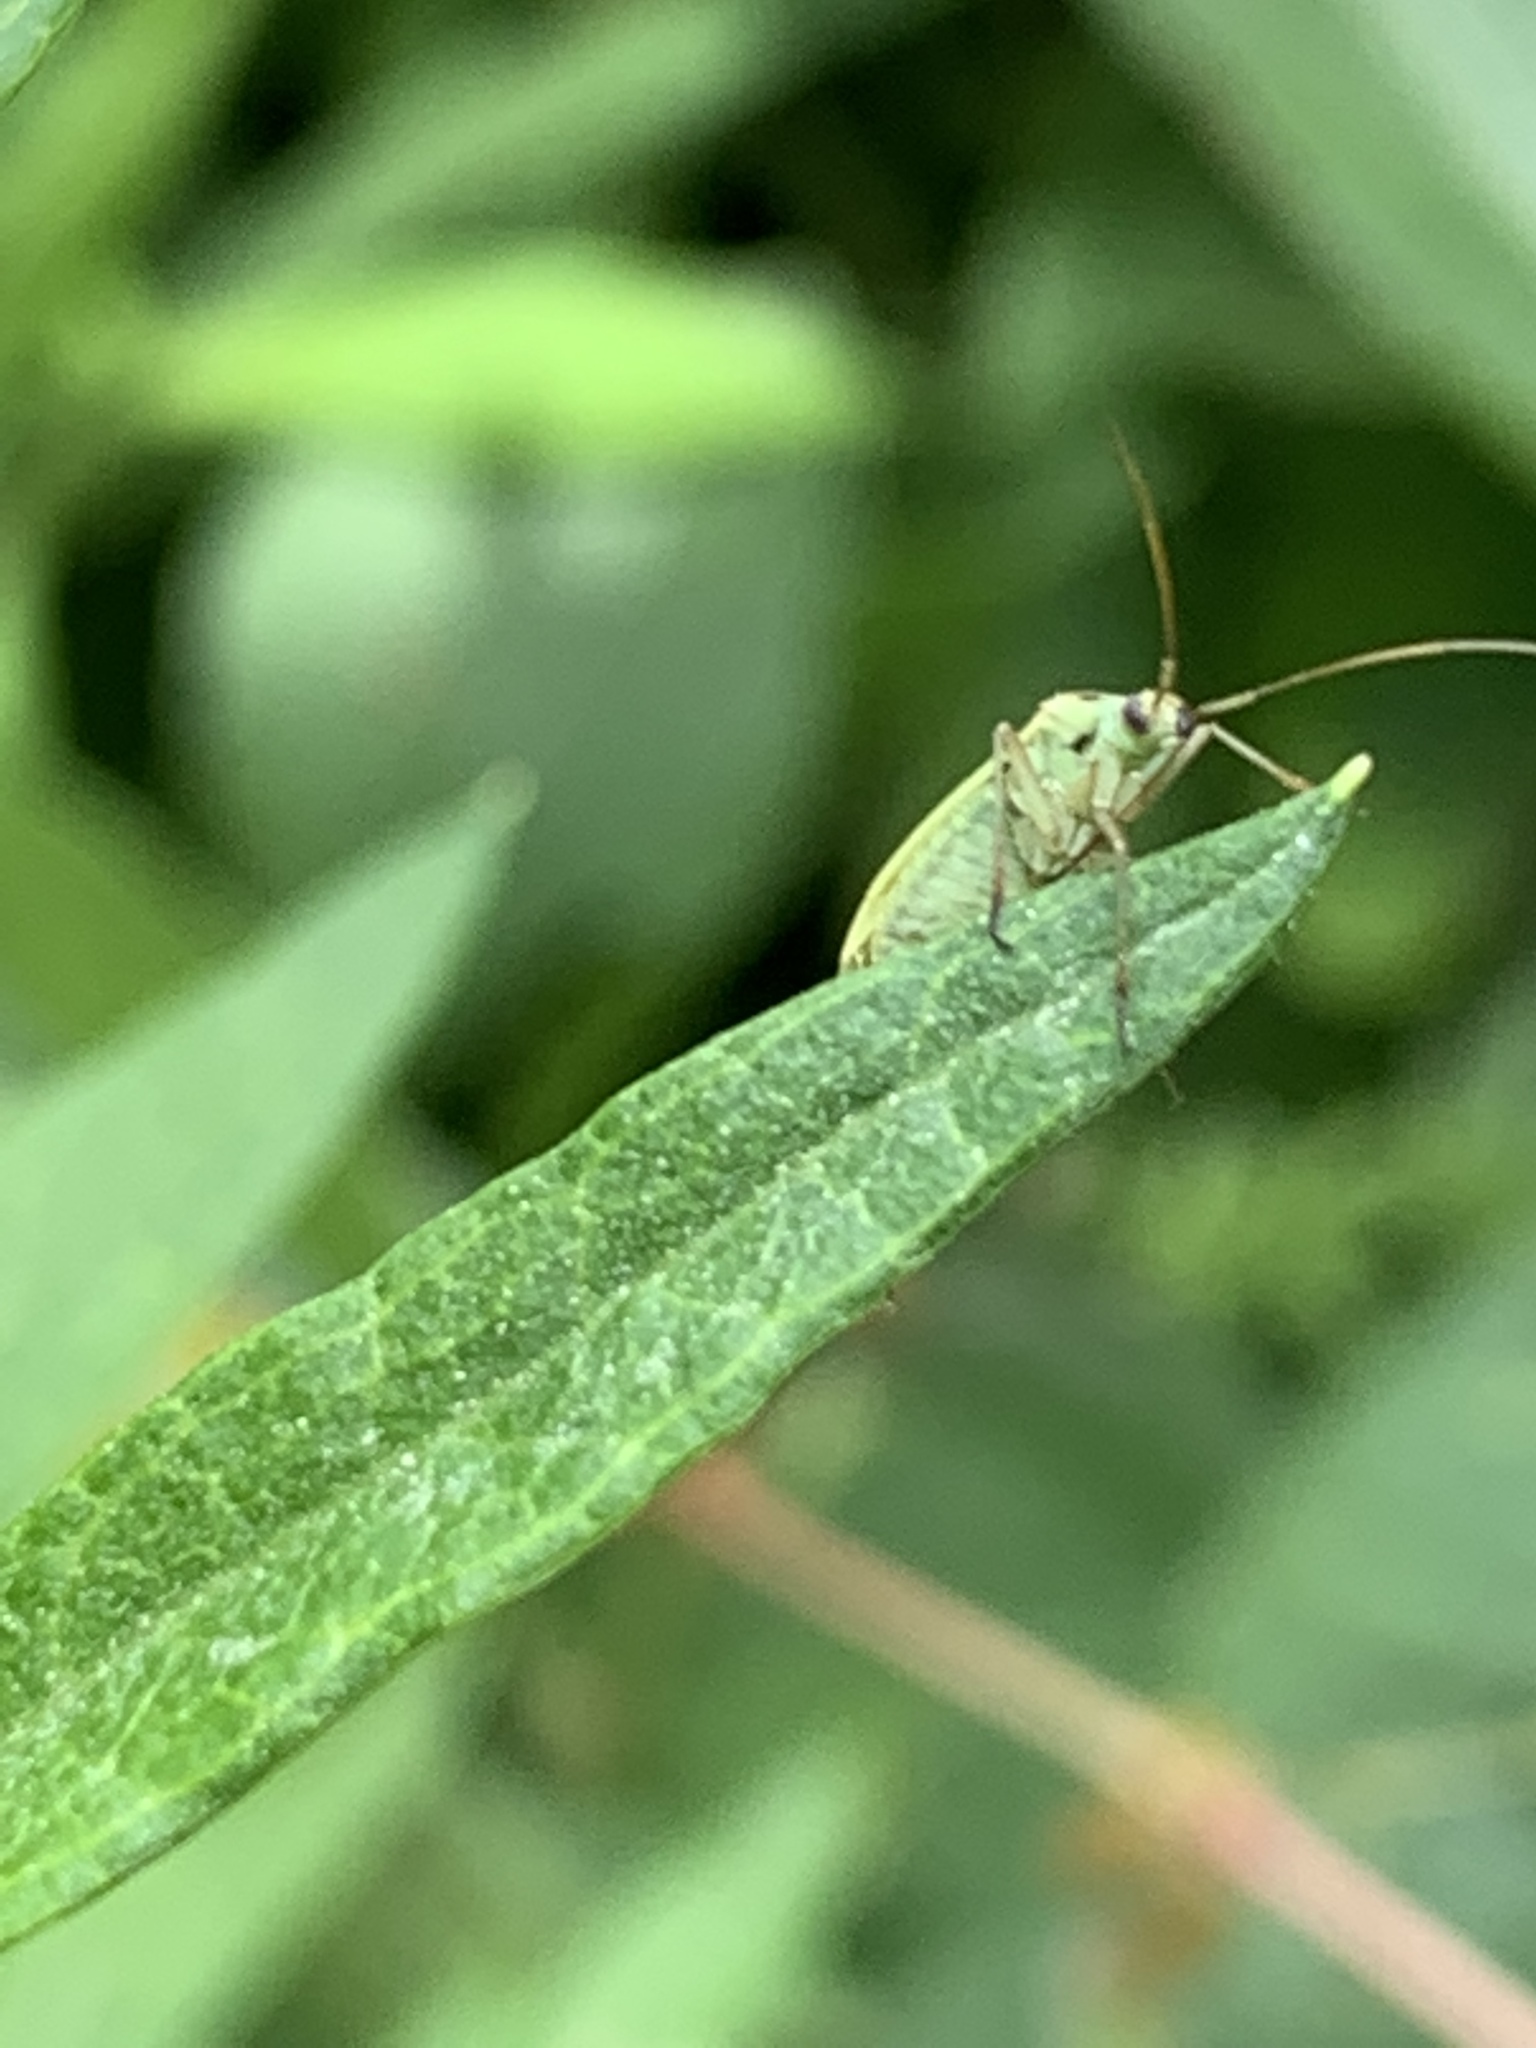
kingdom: Animalia
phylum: Arthropoda
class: Insecta
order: Hemiptera
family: Miridae
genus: Stenotus
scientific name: Stenotus binotatus
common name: Plant bug
